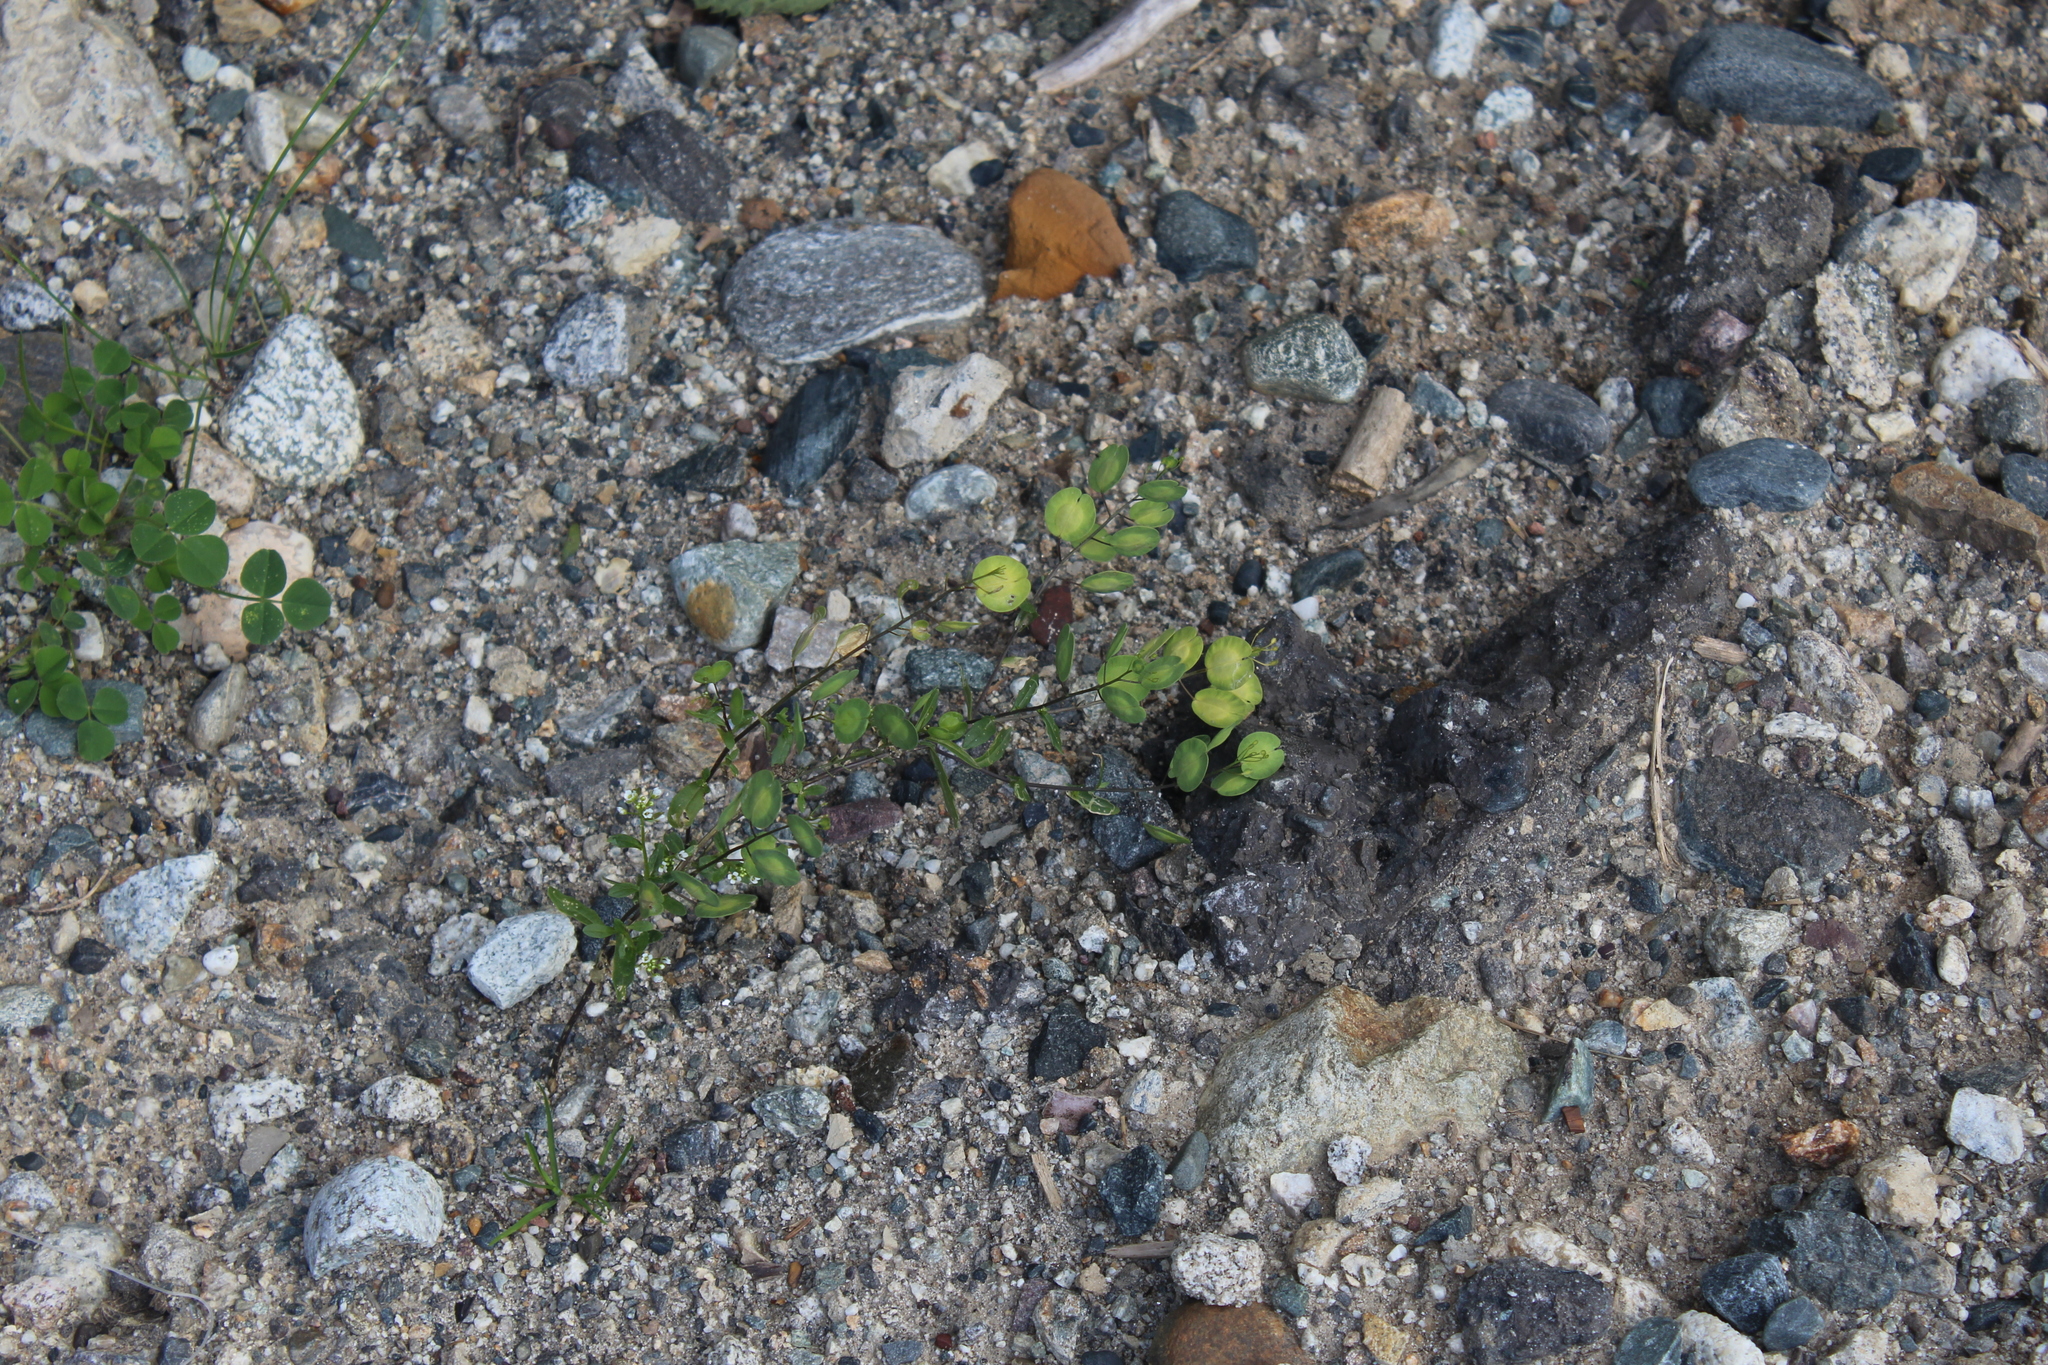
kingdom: Plantae
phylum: Tracheophyta
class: Magnoliopsida
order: Brassicales
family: Brassicaceae
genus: Thlaspi
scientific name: Thlaspi arvense
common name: Field pennycress
